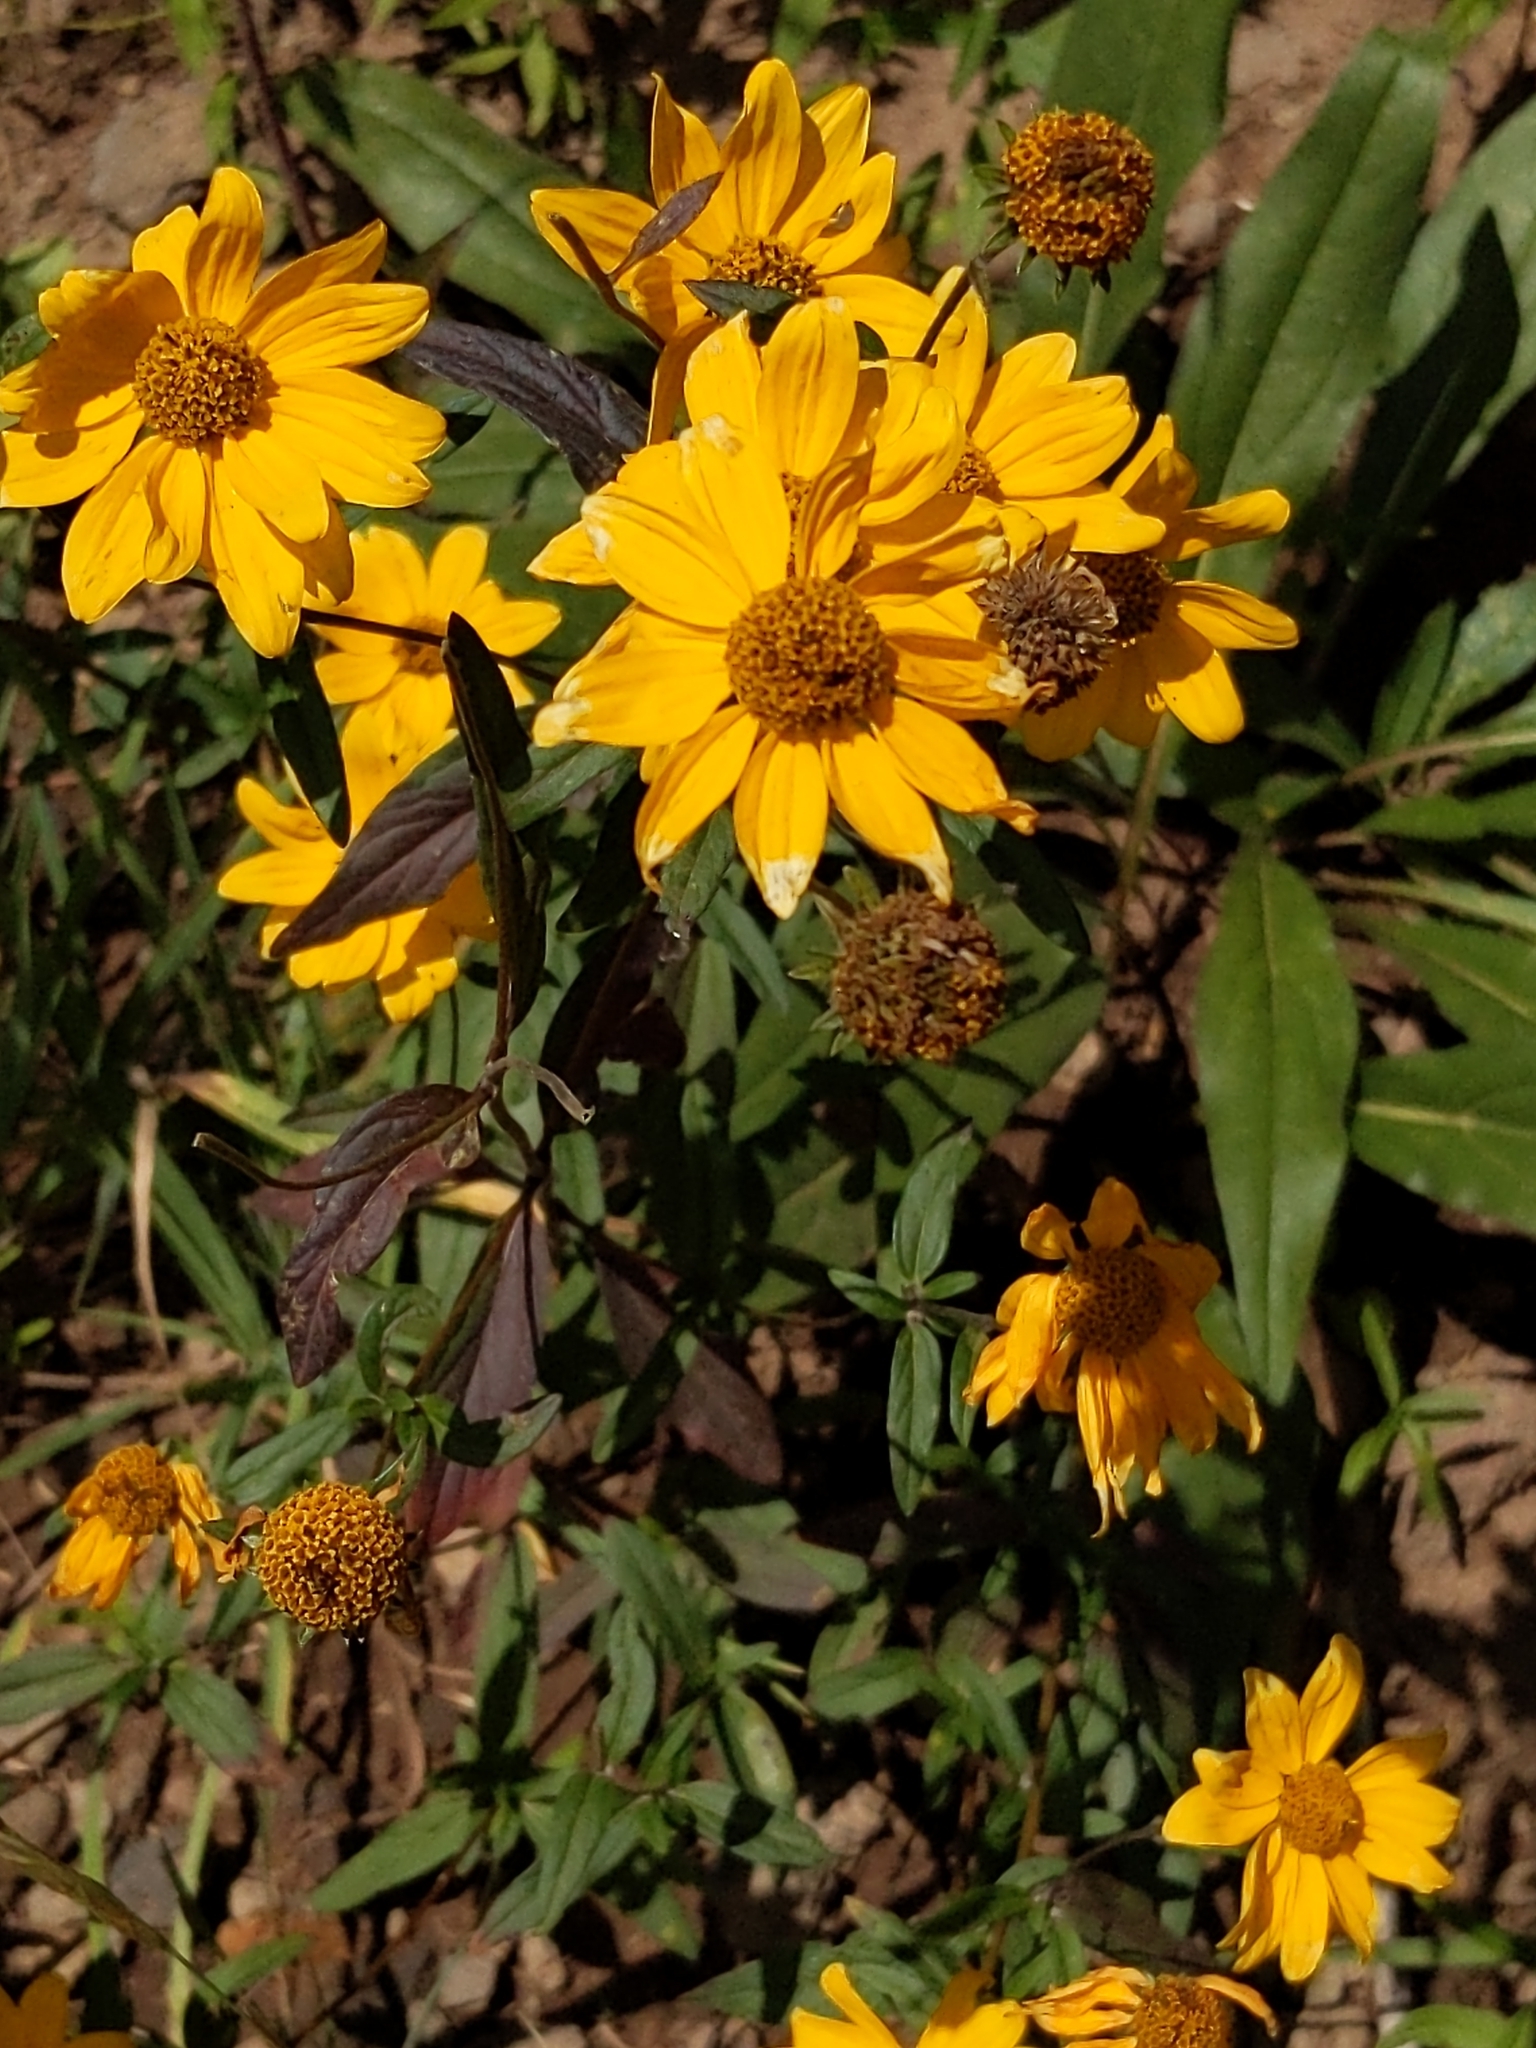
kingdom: Plantae
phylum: Tracheophyta
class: Magnoliopsida
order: Asterales
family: Asteraceae
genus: Heliomeris
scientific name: Heliomeris multiflora
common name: Showy goldeneye
